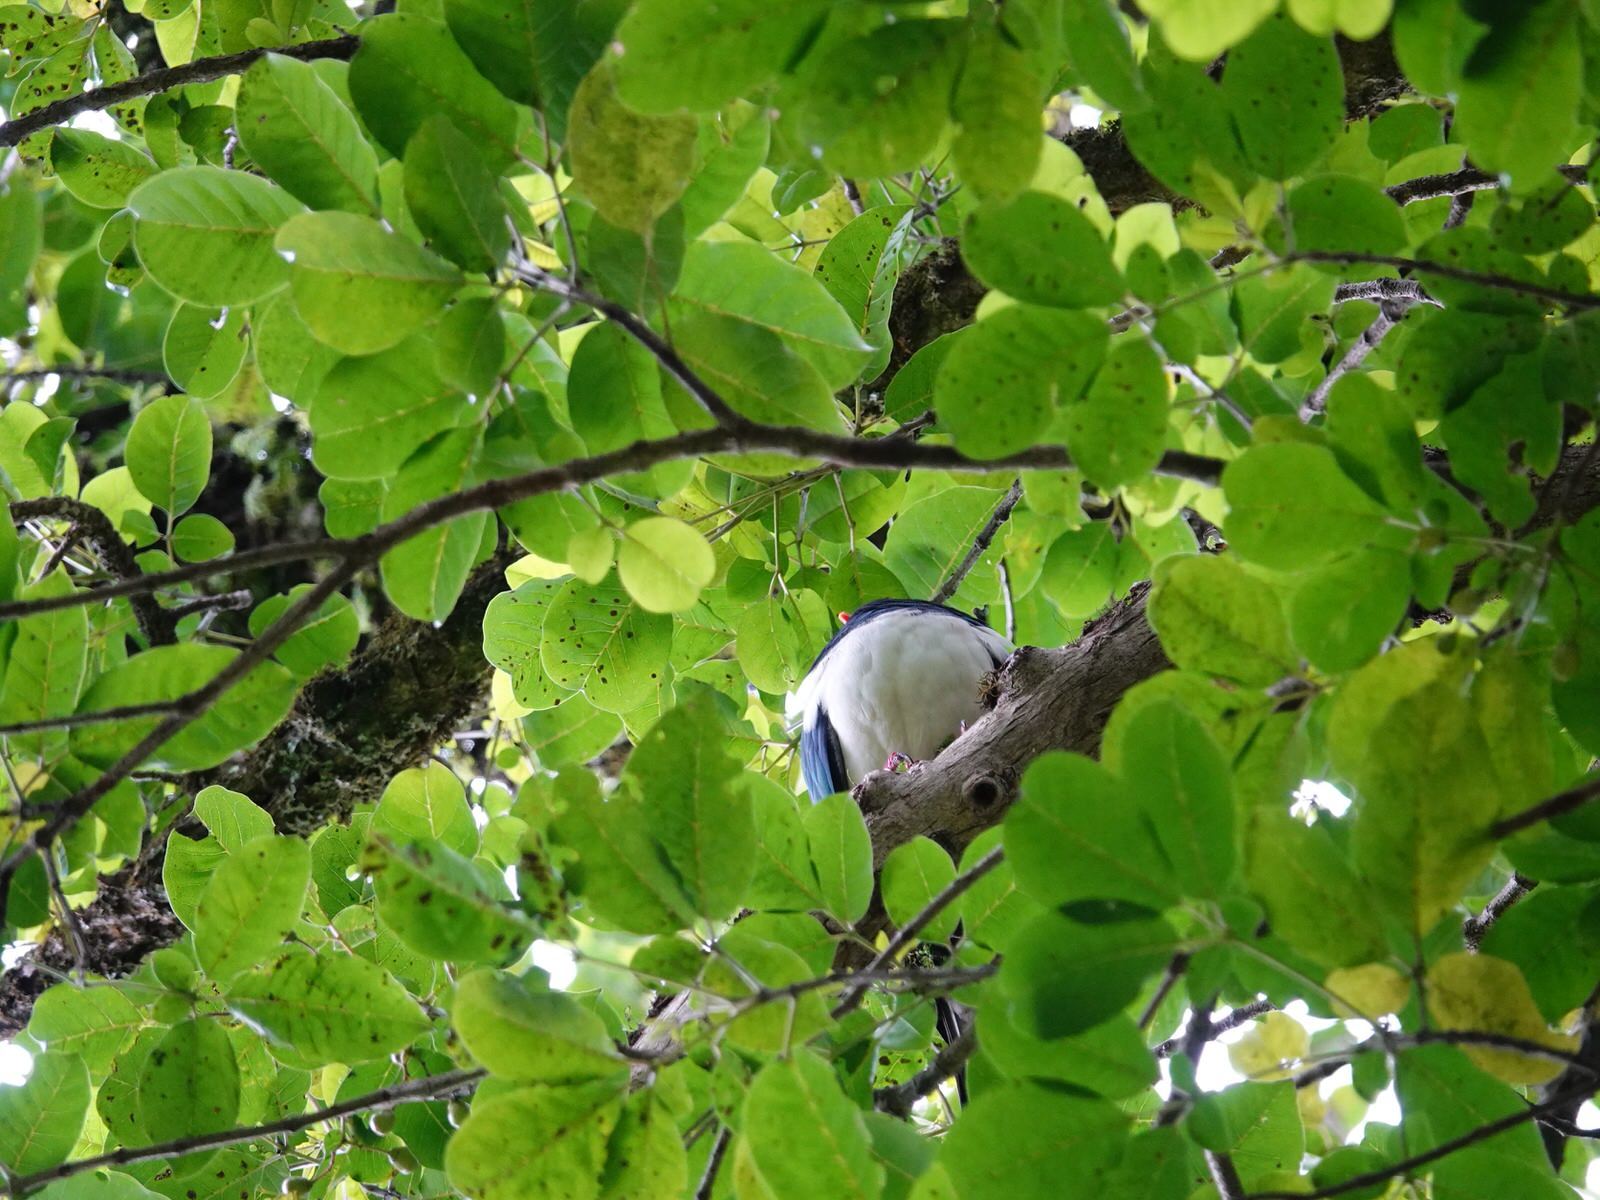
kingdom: Animalia
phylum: Chordata
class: Aves
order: Columbiformes
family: Columbidae
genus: Hemiphaga
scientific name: Hemiphaga novaeseelandiae
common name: New zealand pigeon
